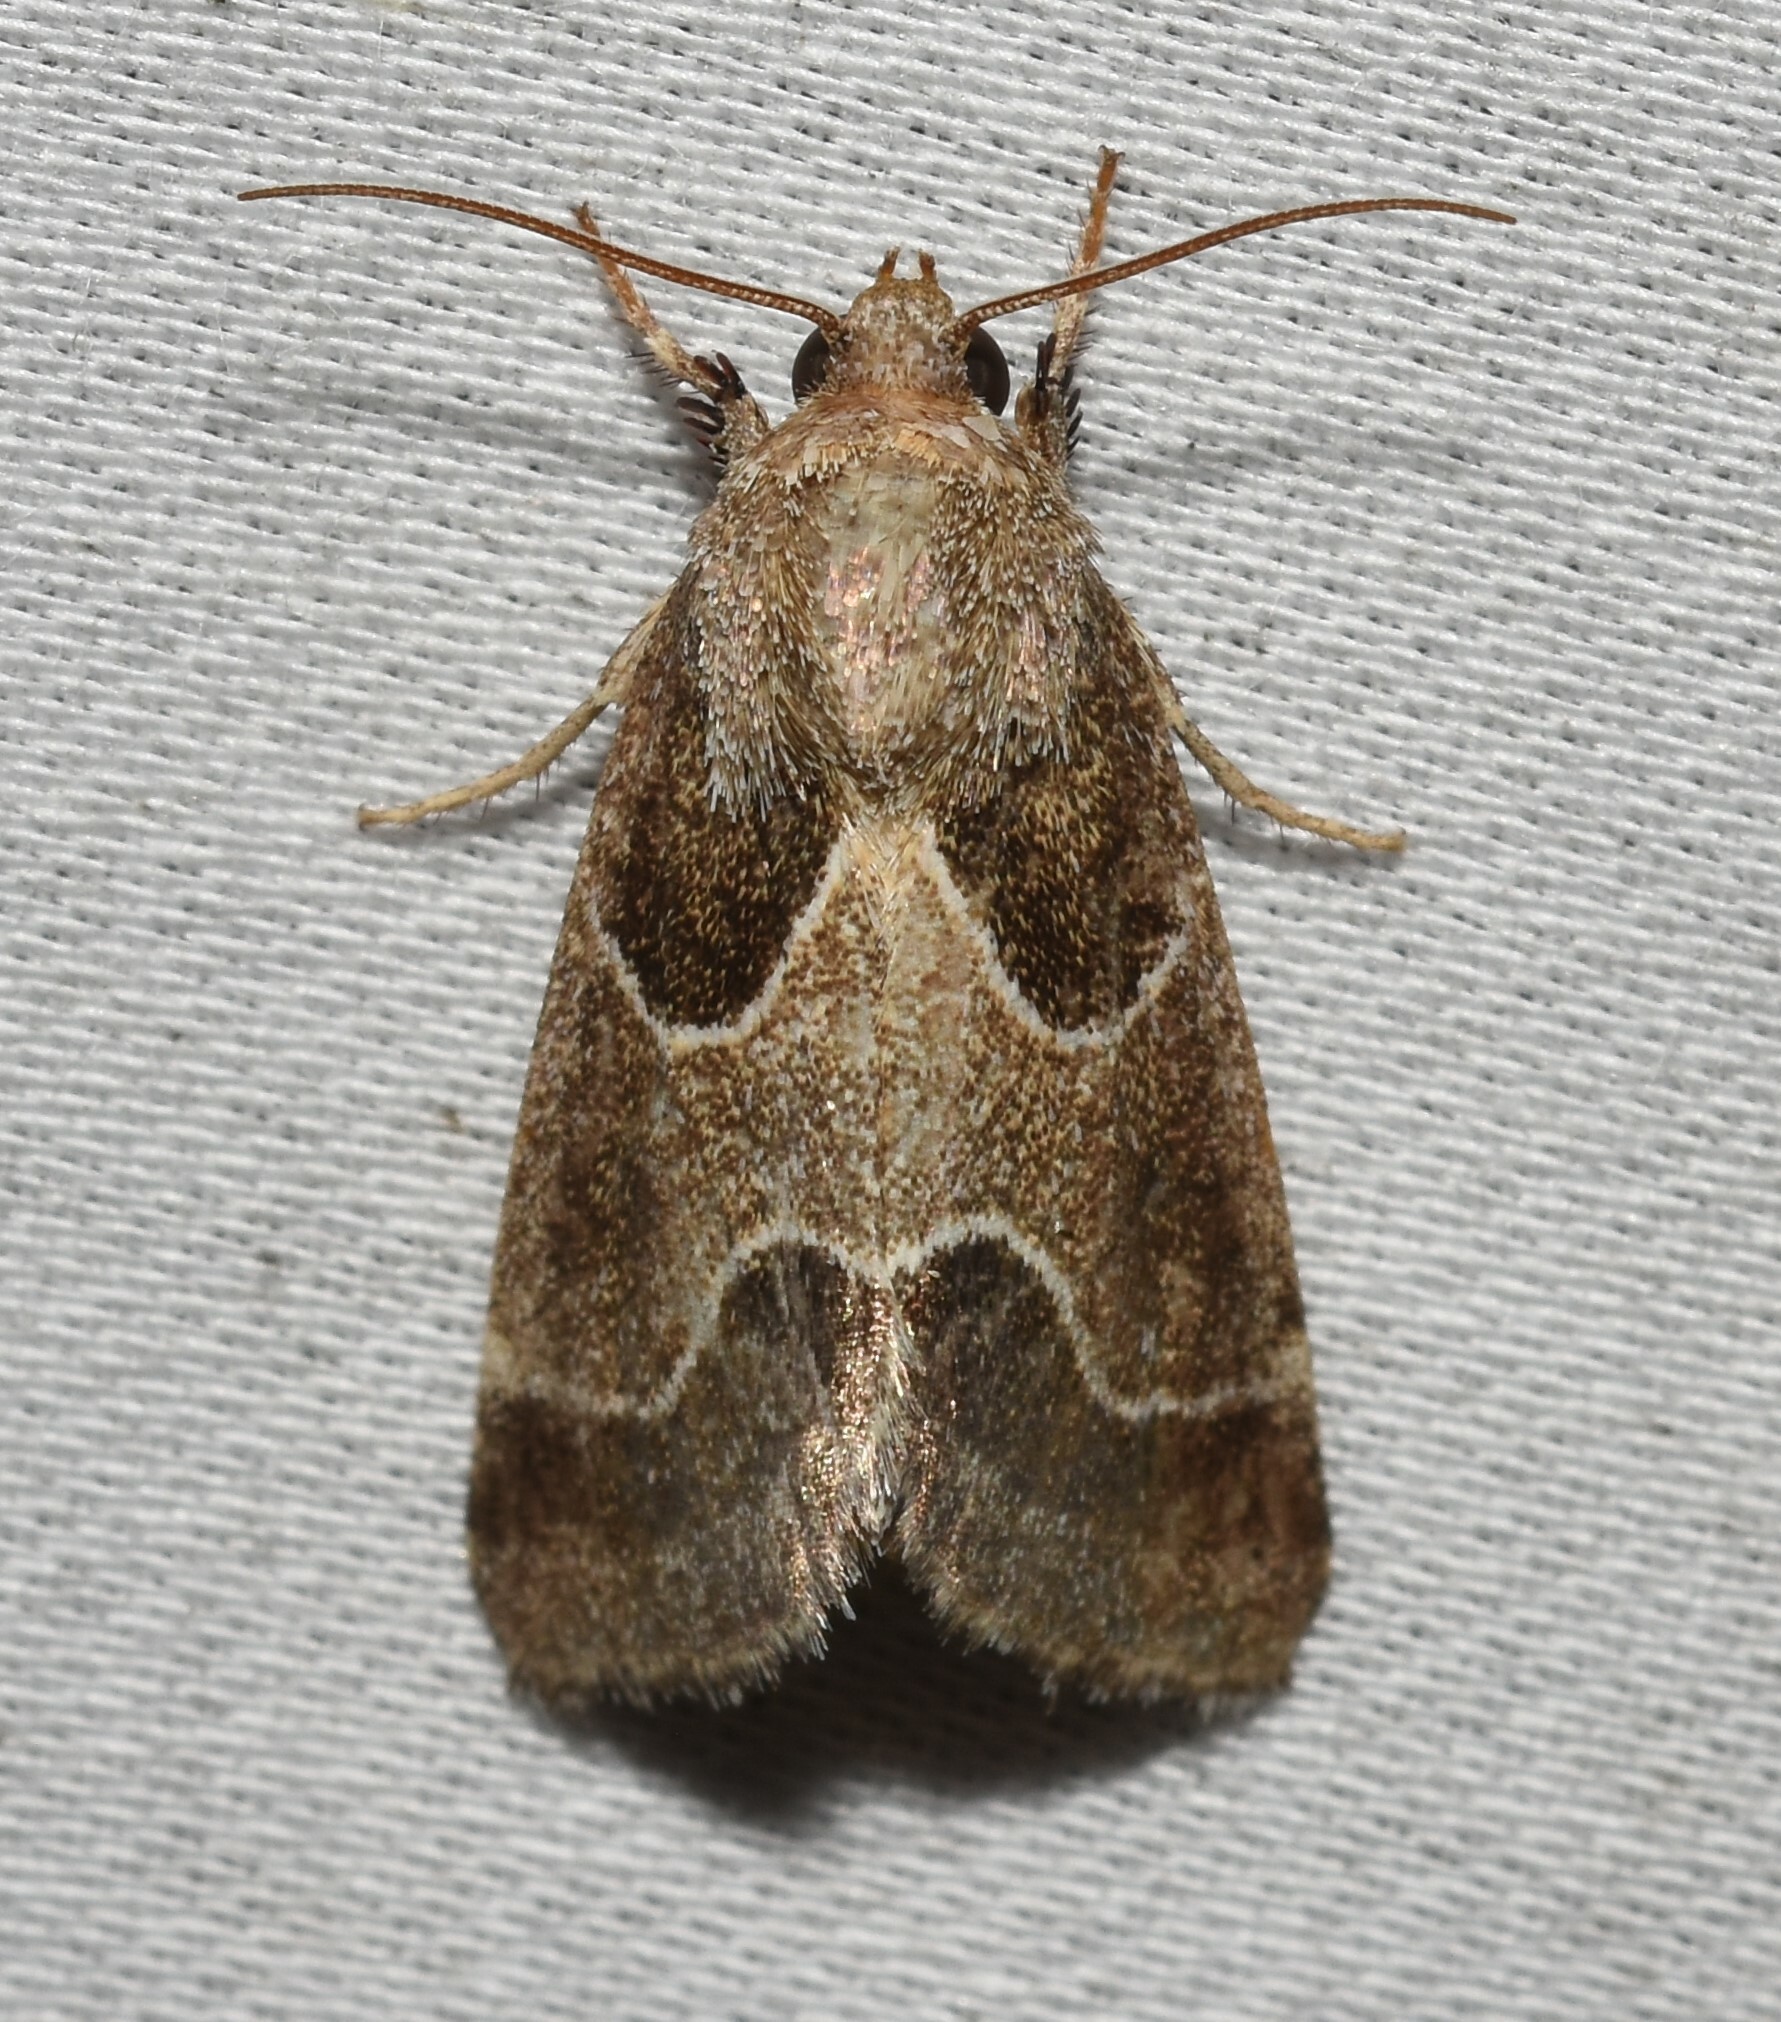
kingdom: Animalia
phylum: Arthropoda
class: Insecta
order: Lepidoptera
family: Noctuidae
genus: Schinia
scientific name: Schinia rivulosa
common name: Scarce meal-moth
